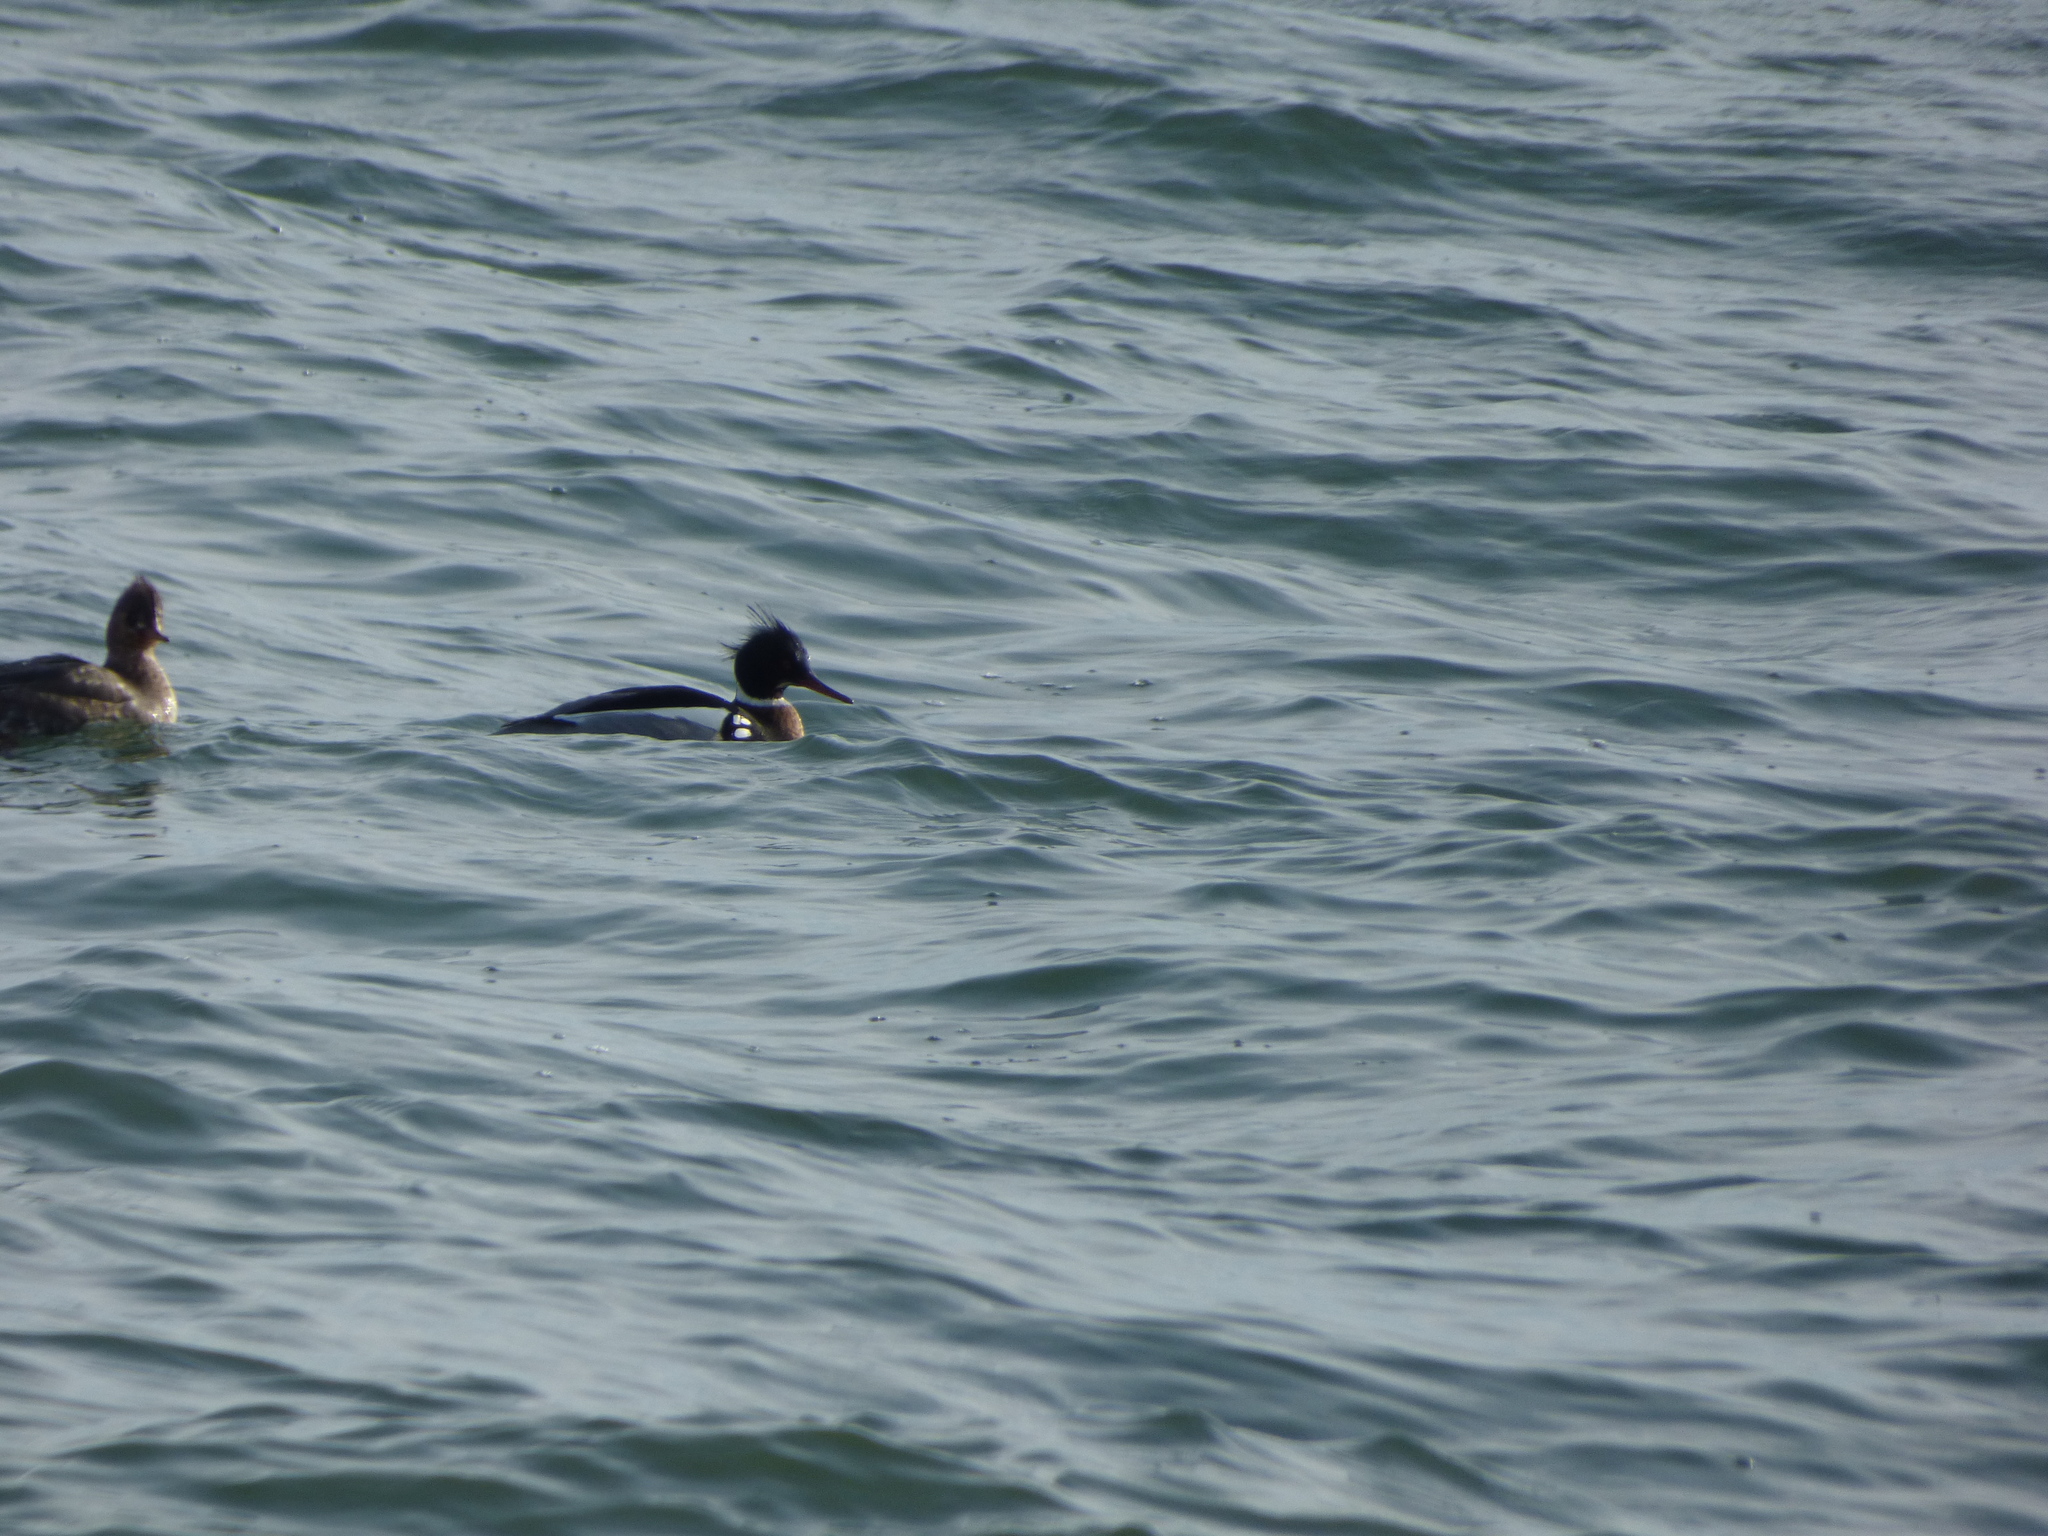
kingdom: Animalia
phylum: Chordata
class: Aves
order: Anseriformes
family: Anatidae
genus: Mergus
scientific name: Mergus serrator
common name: Red-breasted merganser
